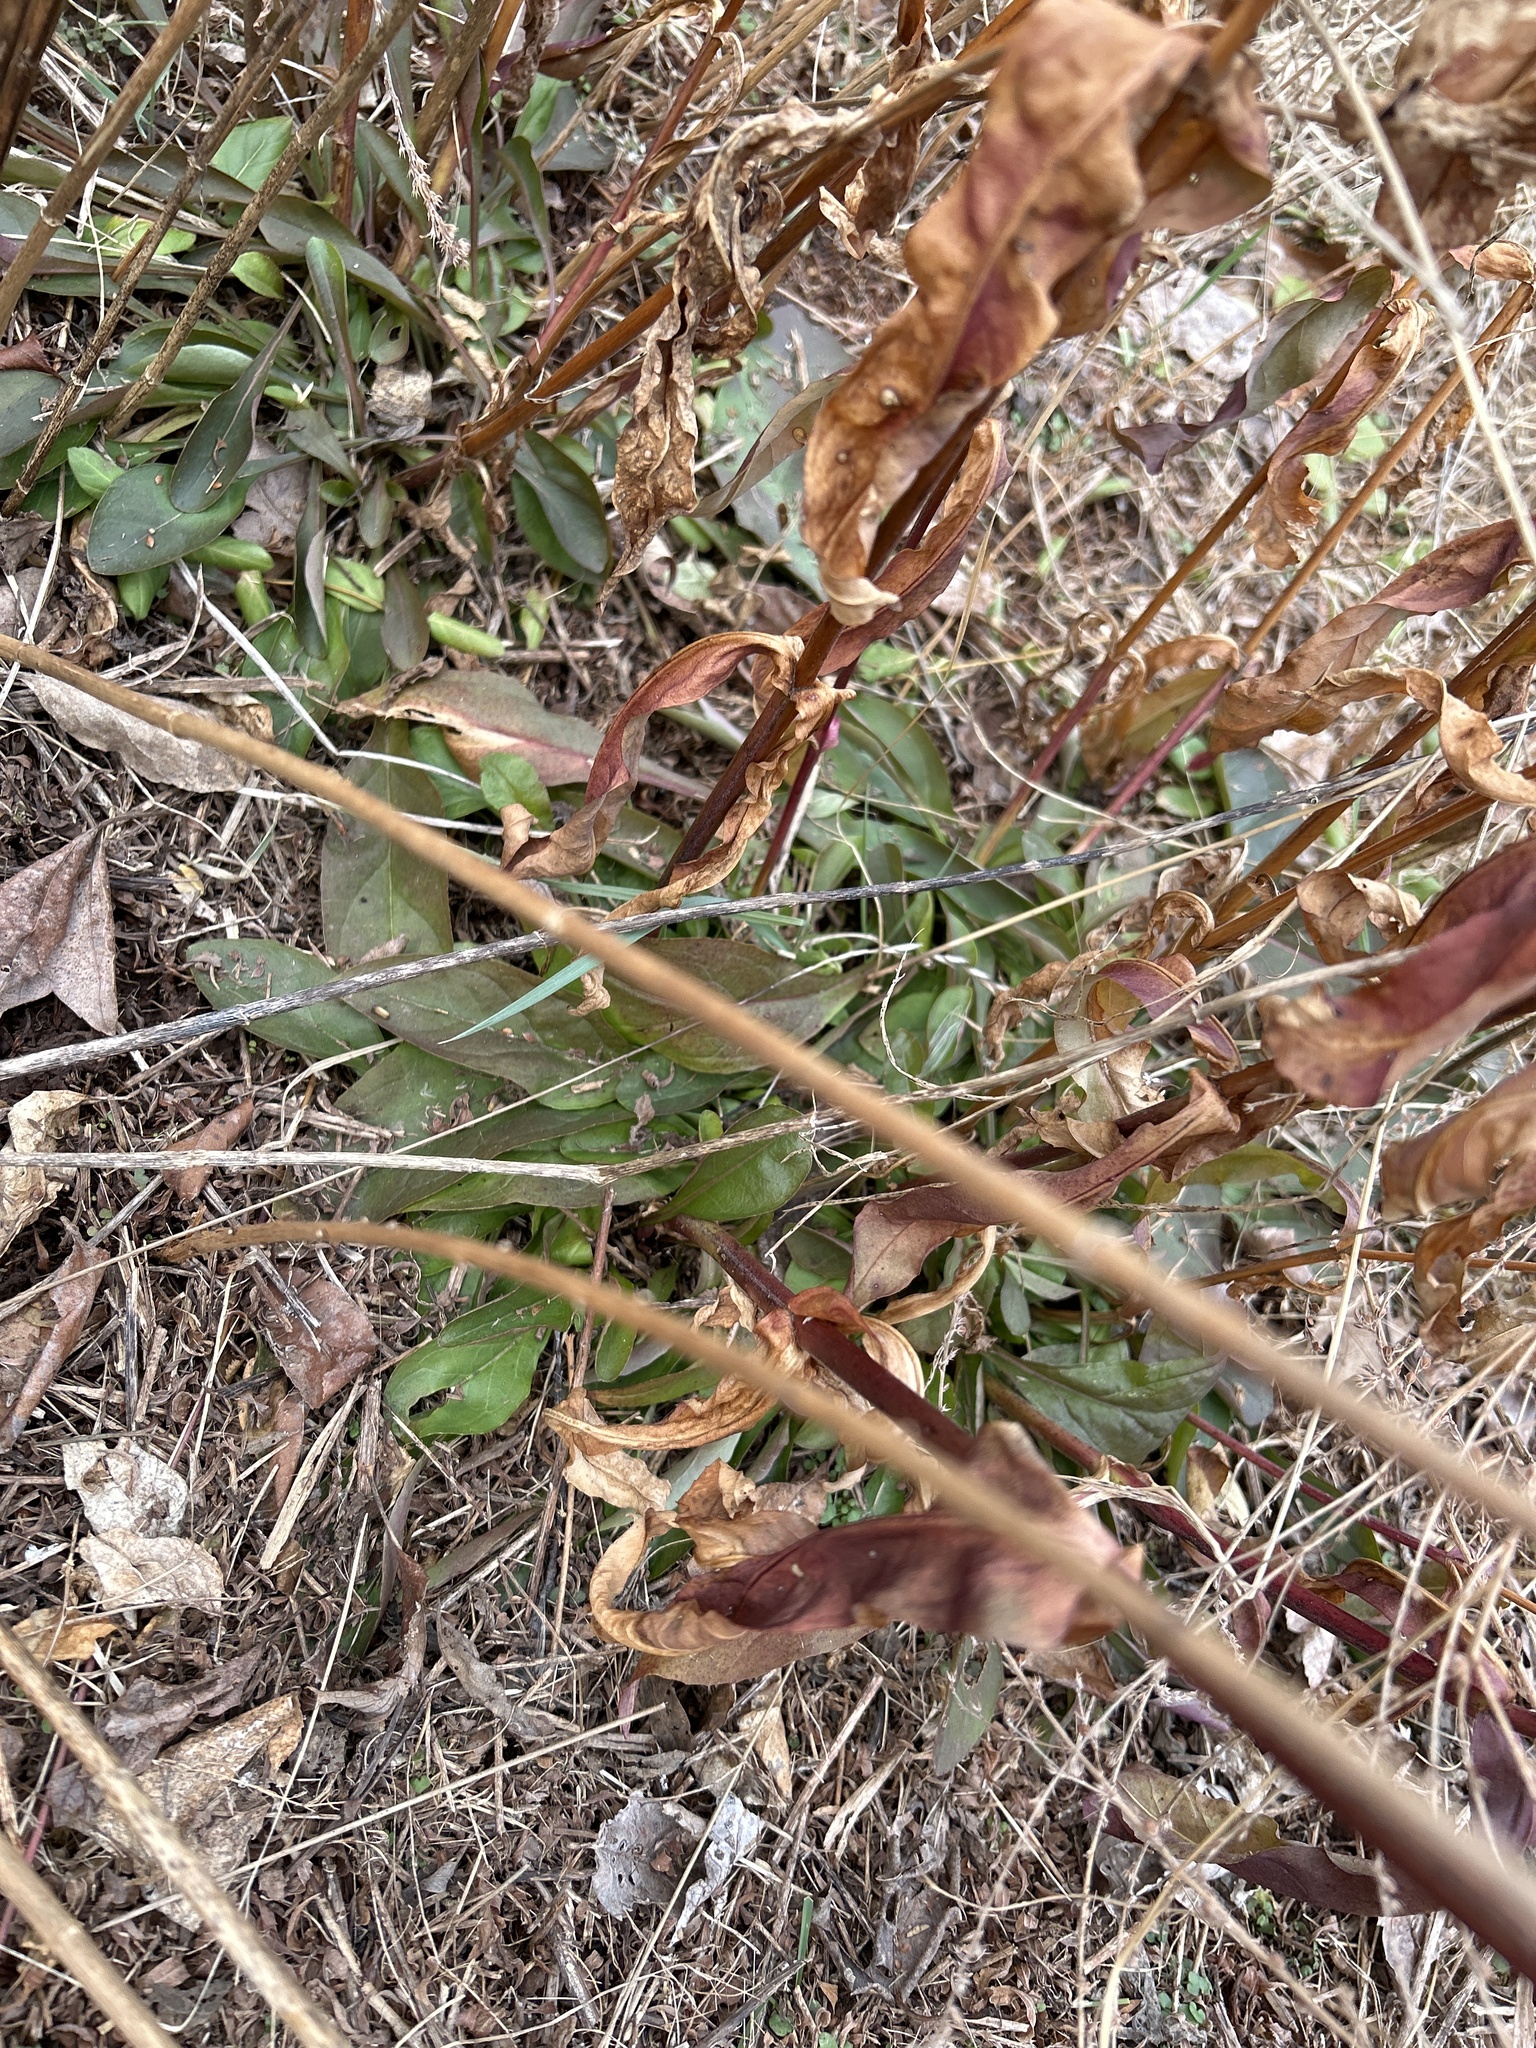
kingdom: Plantae
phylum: Tracheophyta
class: Magnoliopsida
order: Lamiales
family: Plantaginaceae
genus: Penstemon
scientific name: Penstemon digitalis
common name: Foxglove beardtongue
